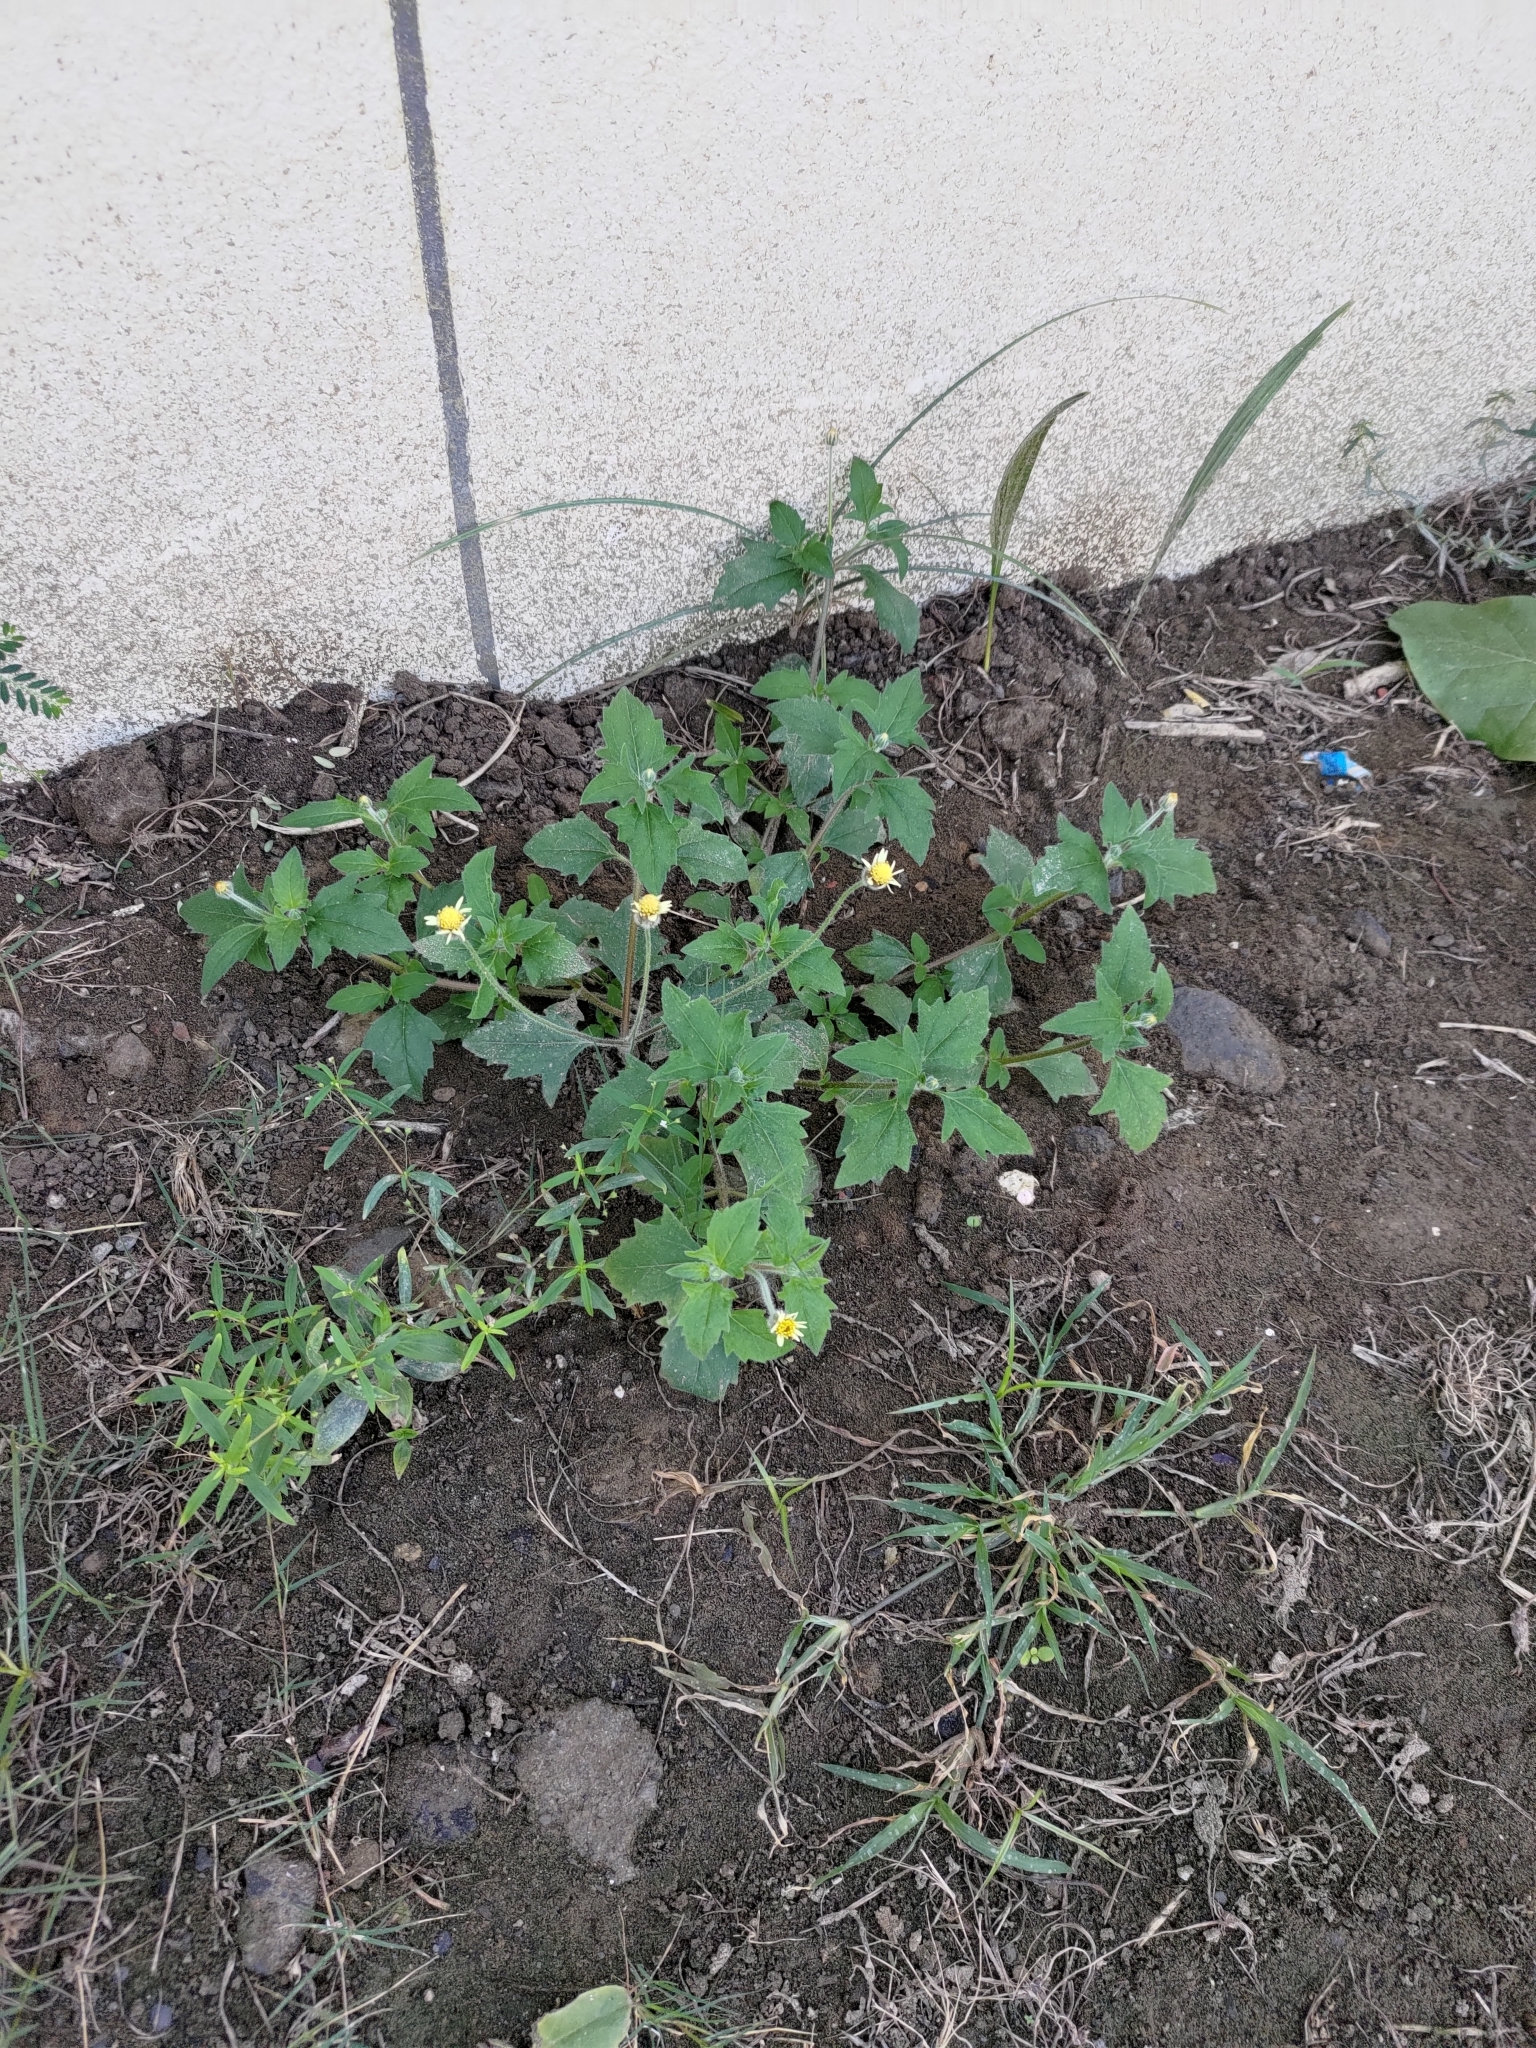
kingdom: Plantae
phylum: Tracheophyta
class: Magnoliopsida
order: Asterales
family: Asteraceae
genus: Tridax
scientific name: Tridax procumbens
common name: Coatbuttons
